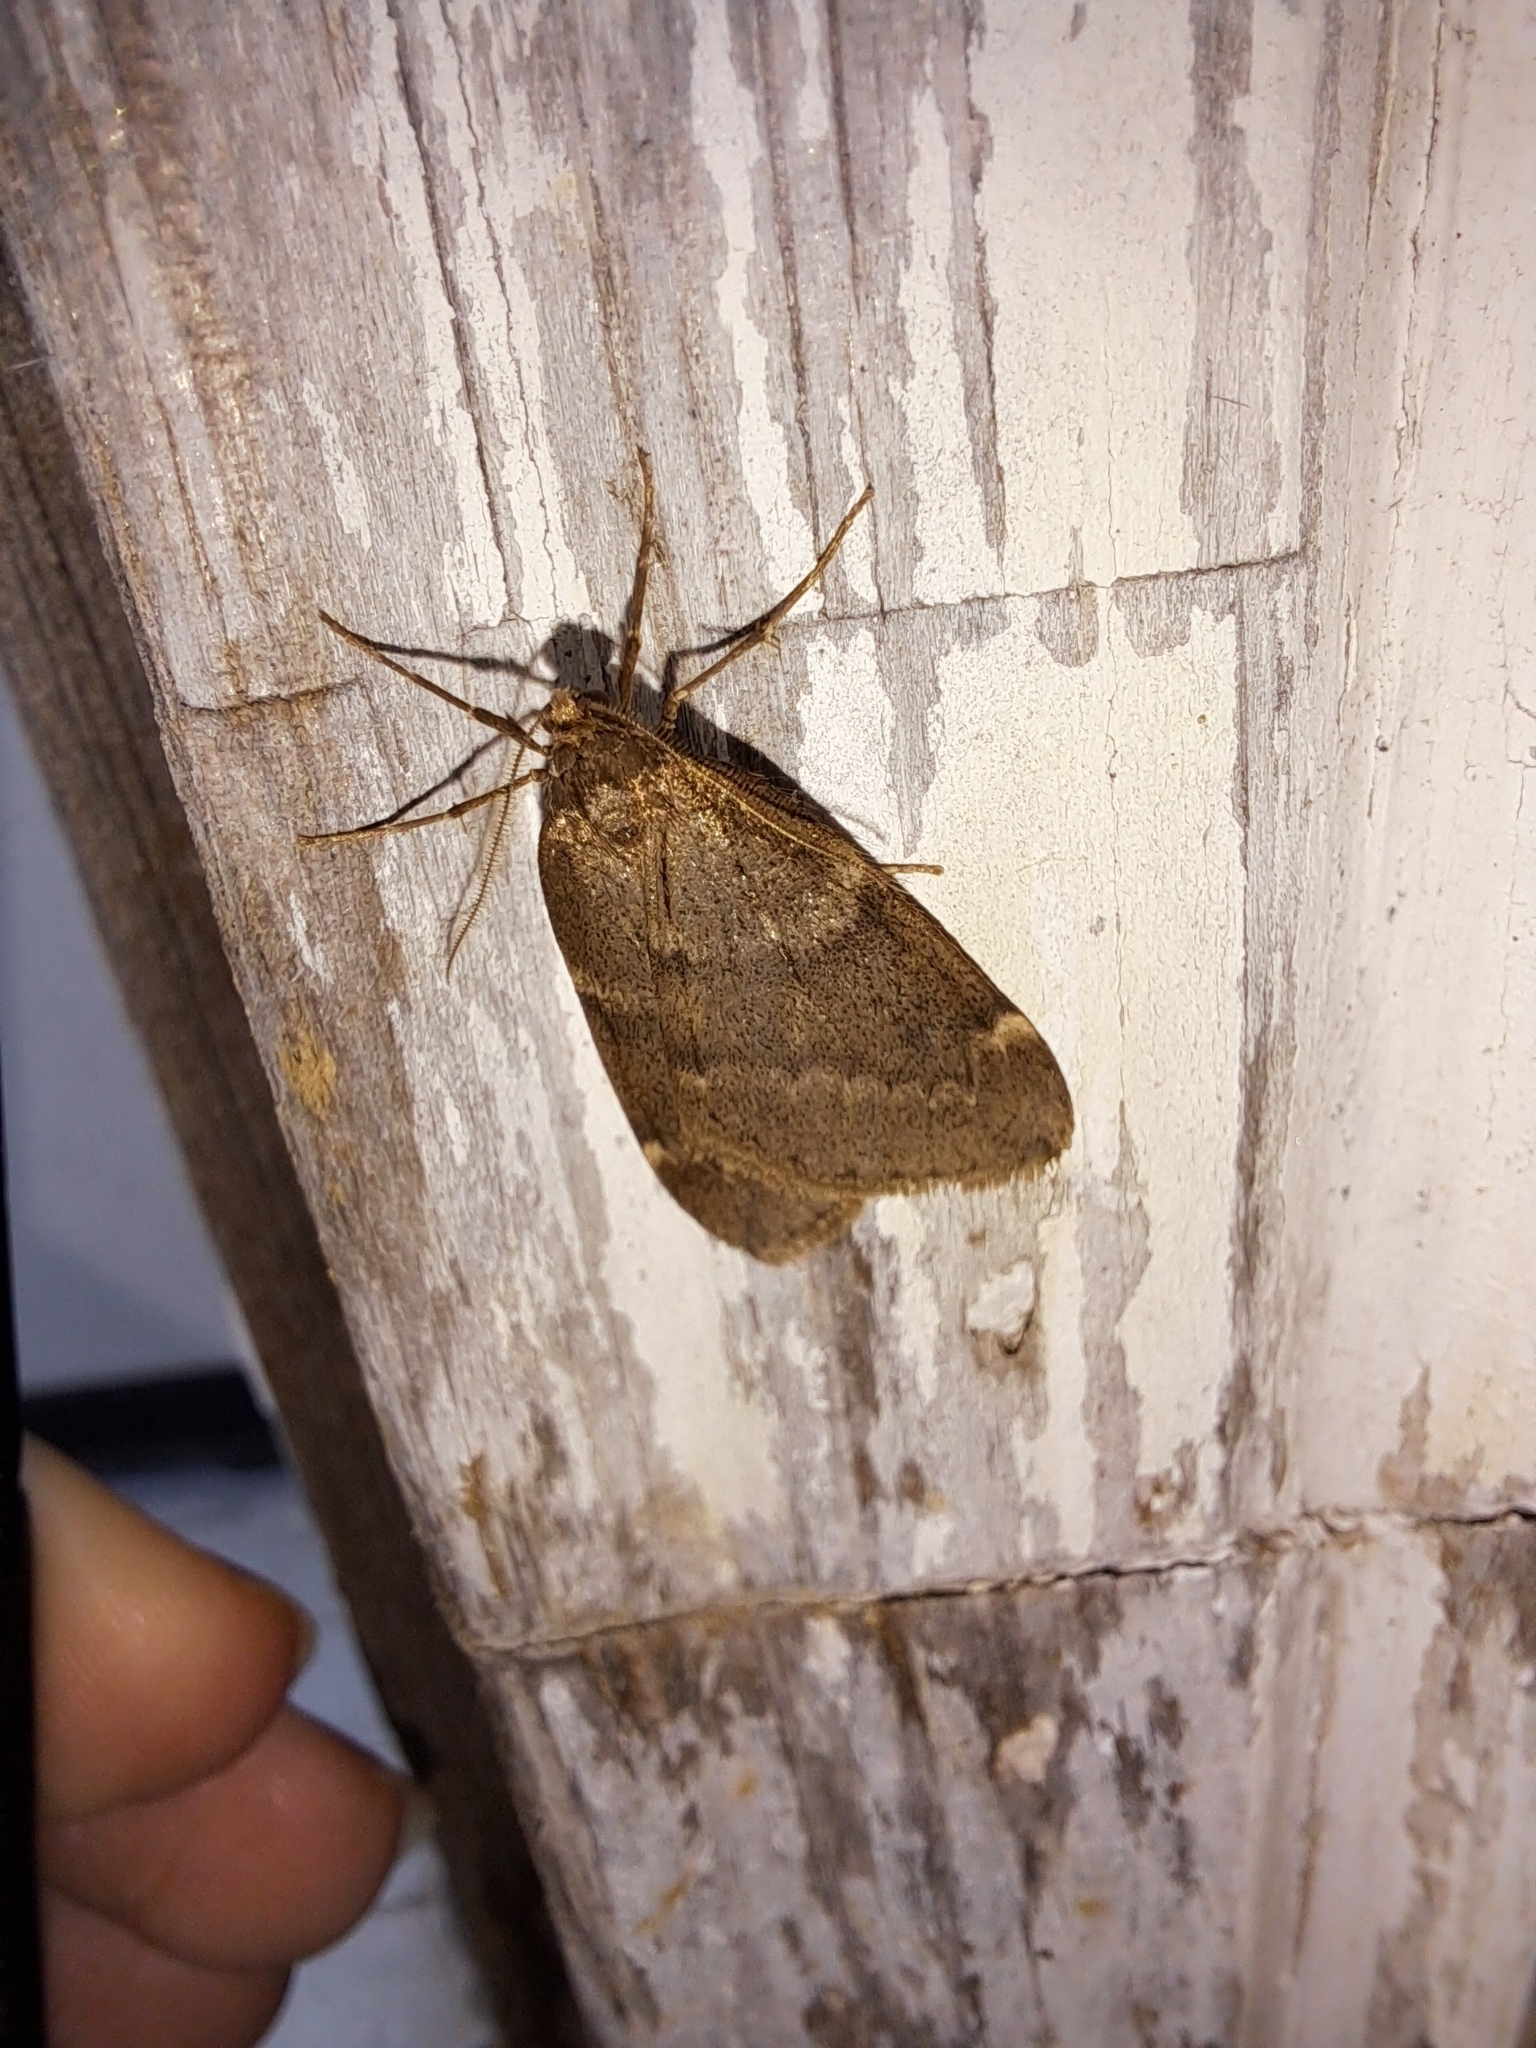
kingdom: Animalia
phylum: Arthropoda
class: Insecta
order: Lepidoptera
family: Geometridae
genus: Alsophila
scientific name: Alsophila pometaria
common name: Fall cankerworm
